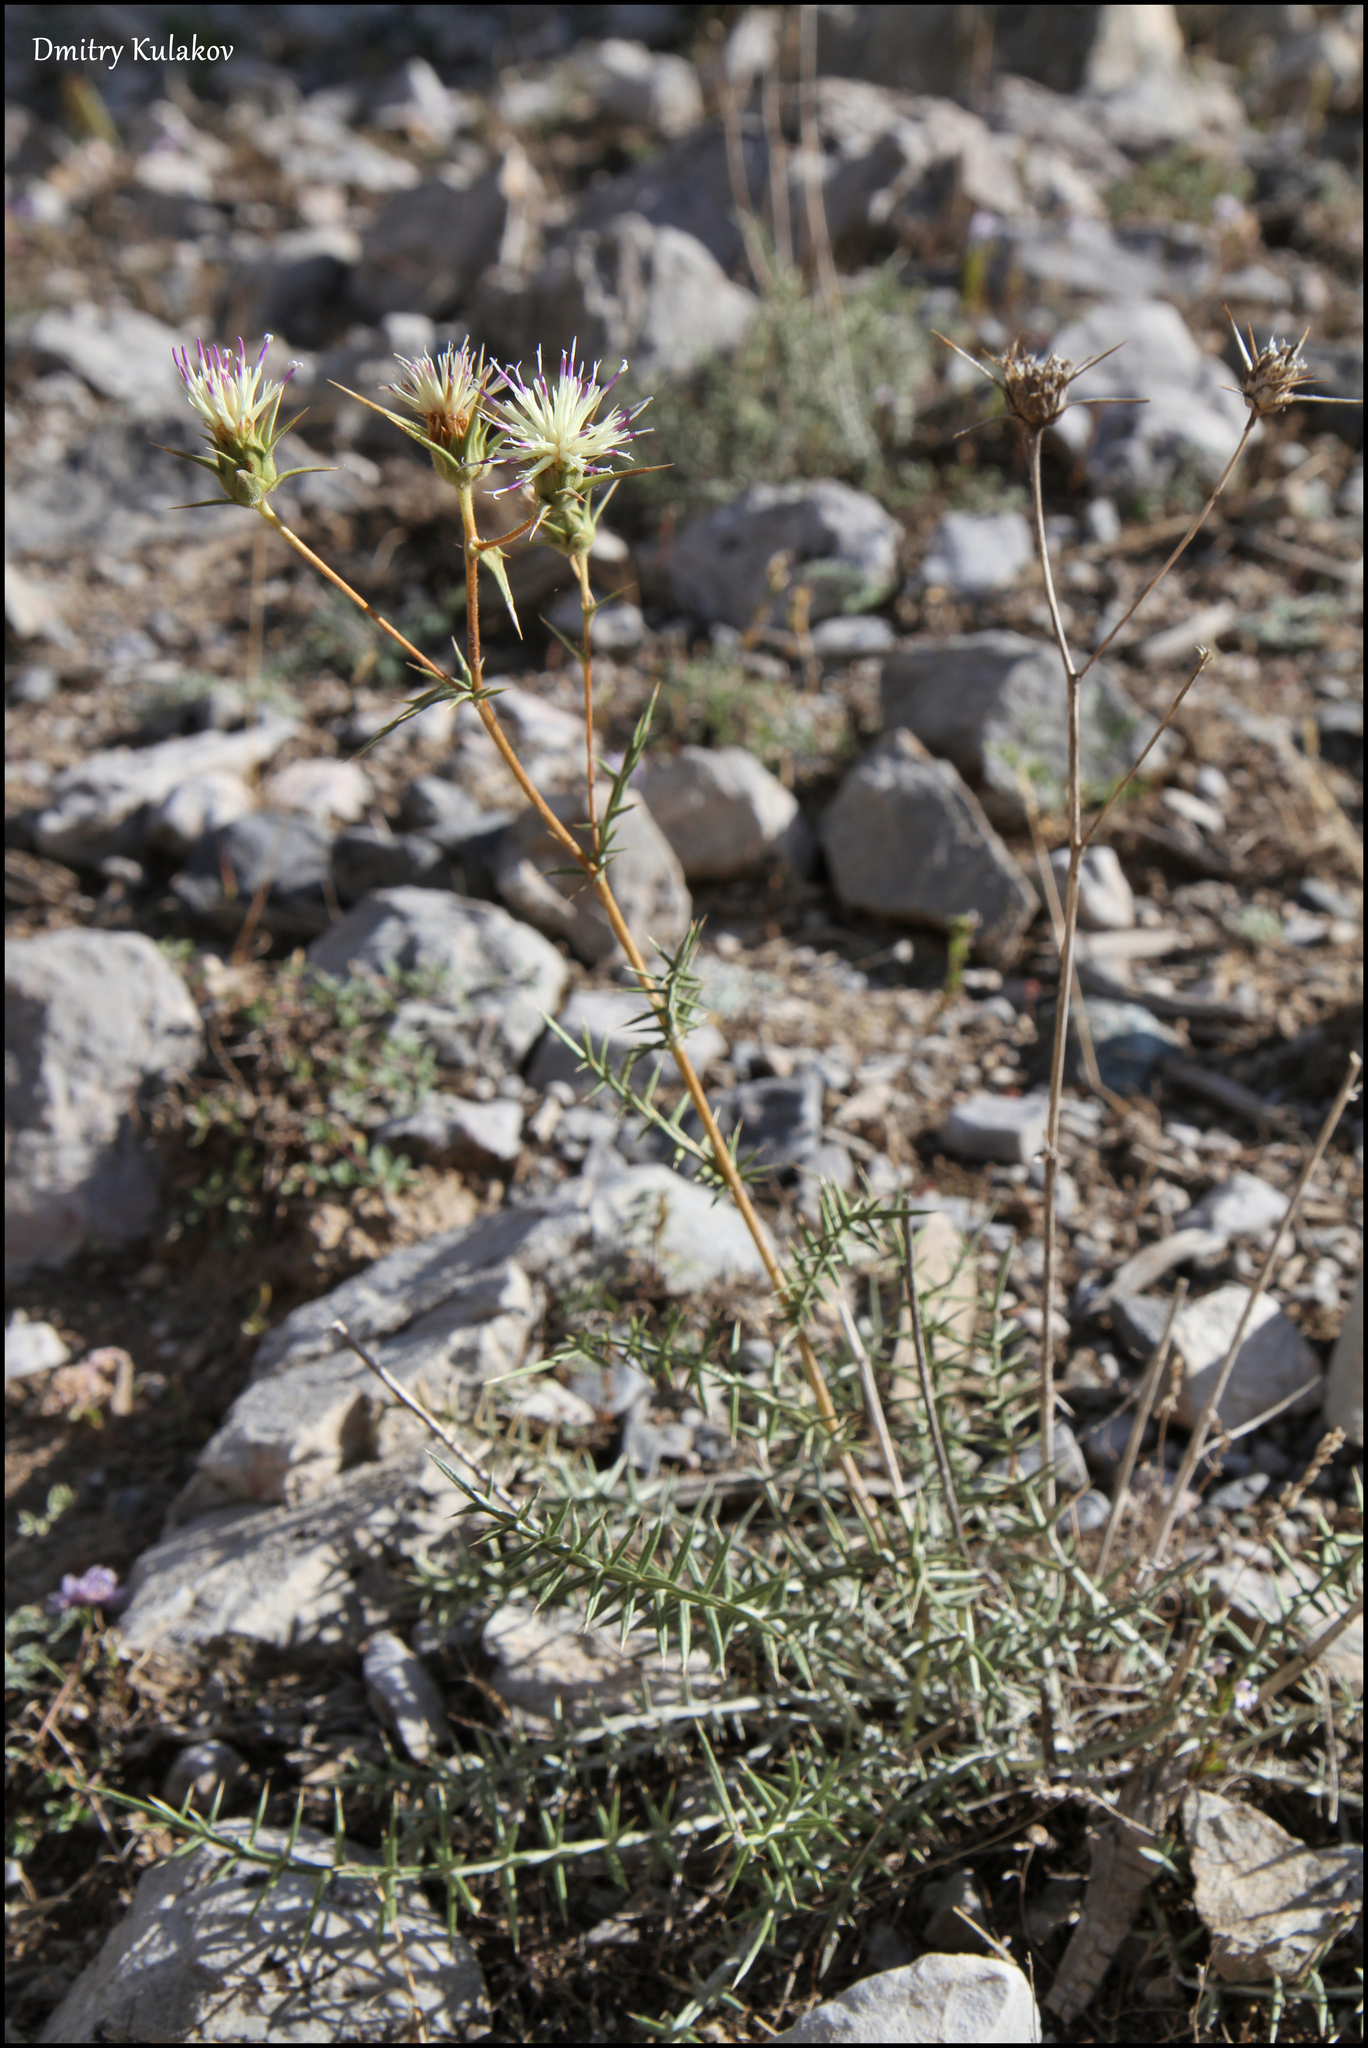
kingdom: Plantae
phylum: Tracheophyta
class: Magnoliopsida
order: Asterales
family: Asteraceae
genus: Cousinia
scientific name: Cousinia sarawschanica
